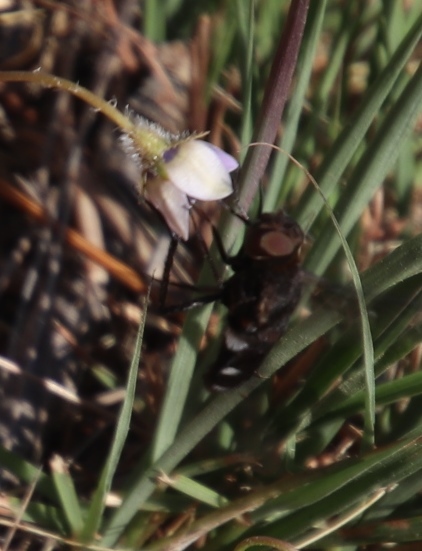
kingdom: Plantae
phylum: Tracheophyta
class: Magnoliopsida
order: Asterales
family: Campanulaceae
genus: Wahlenbergia
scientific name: Wahlenbergia capensis
